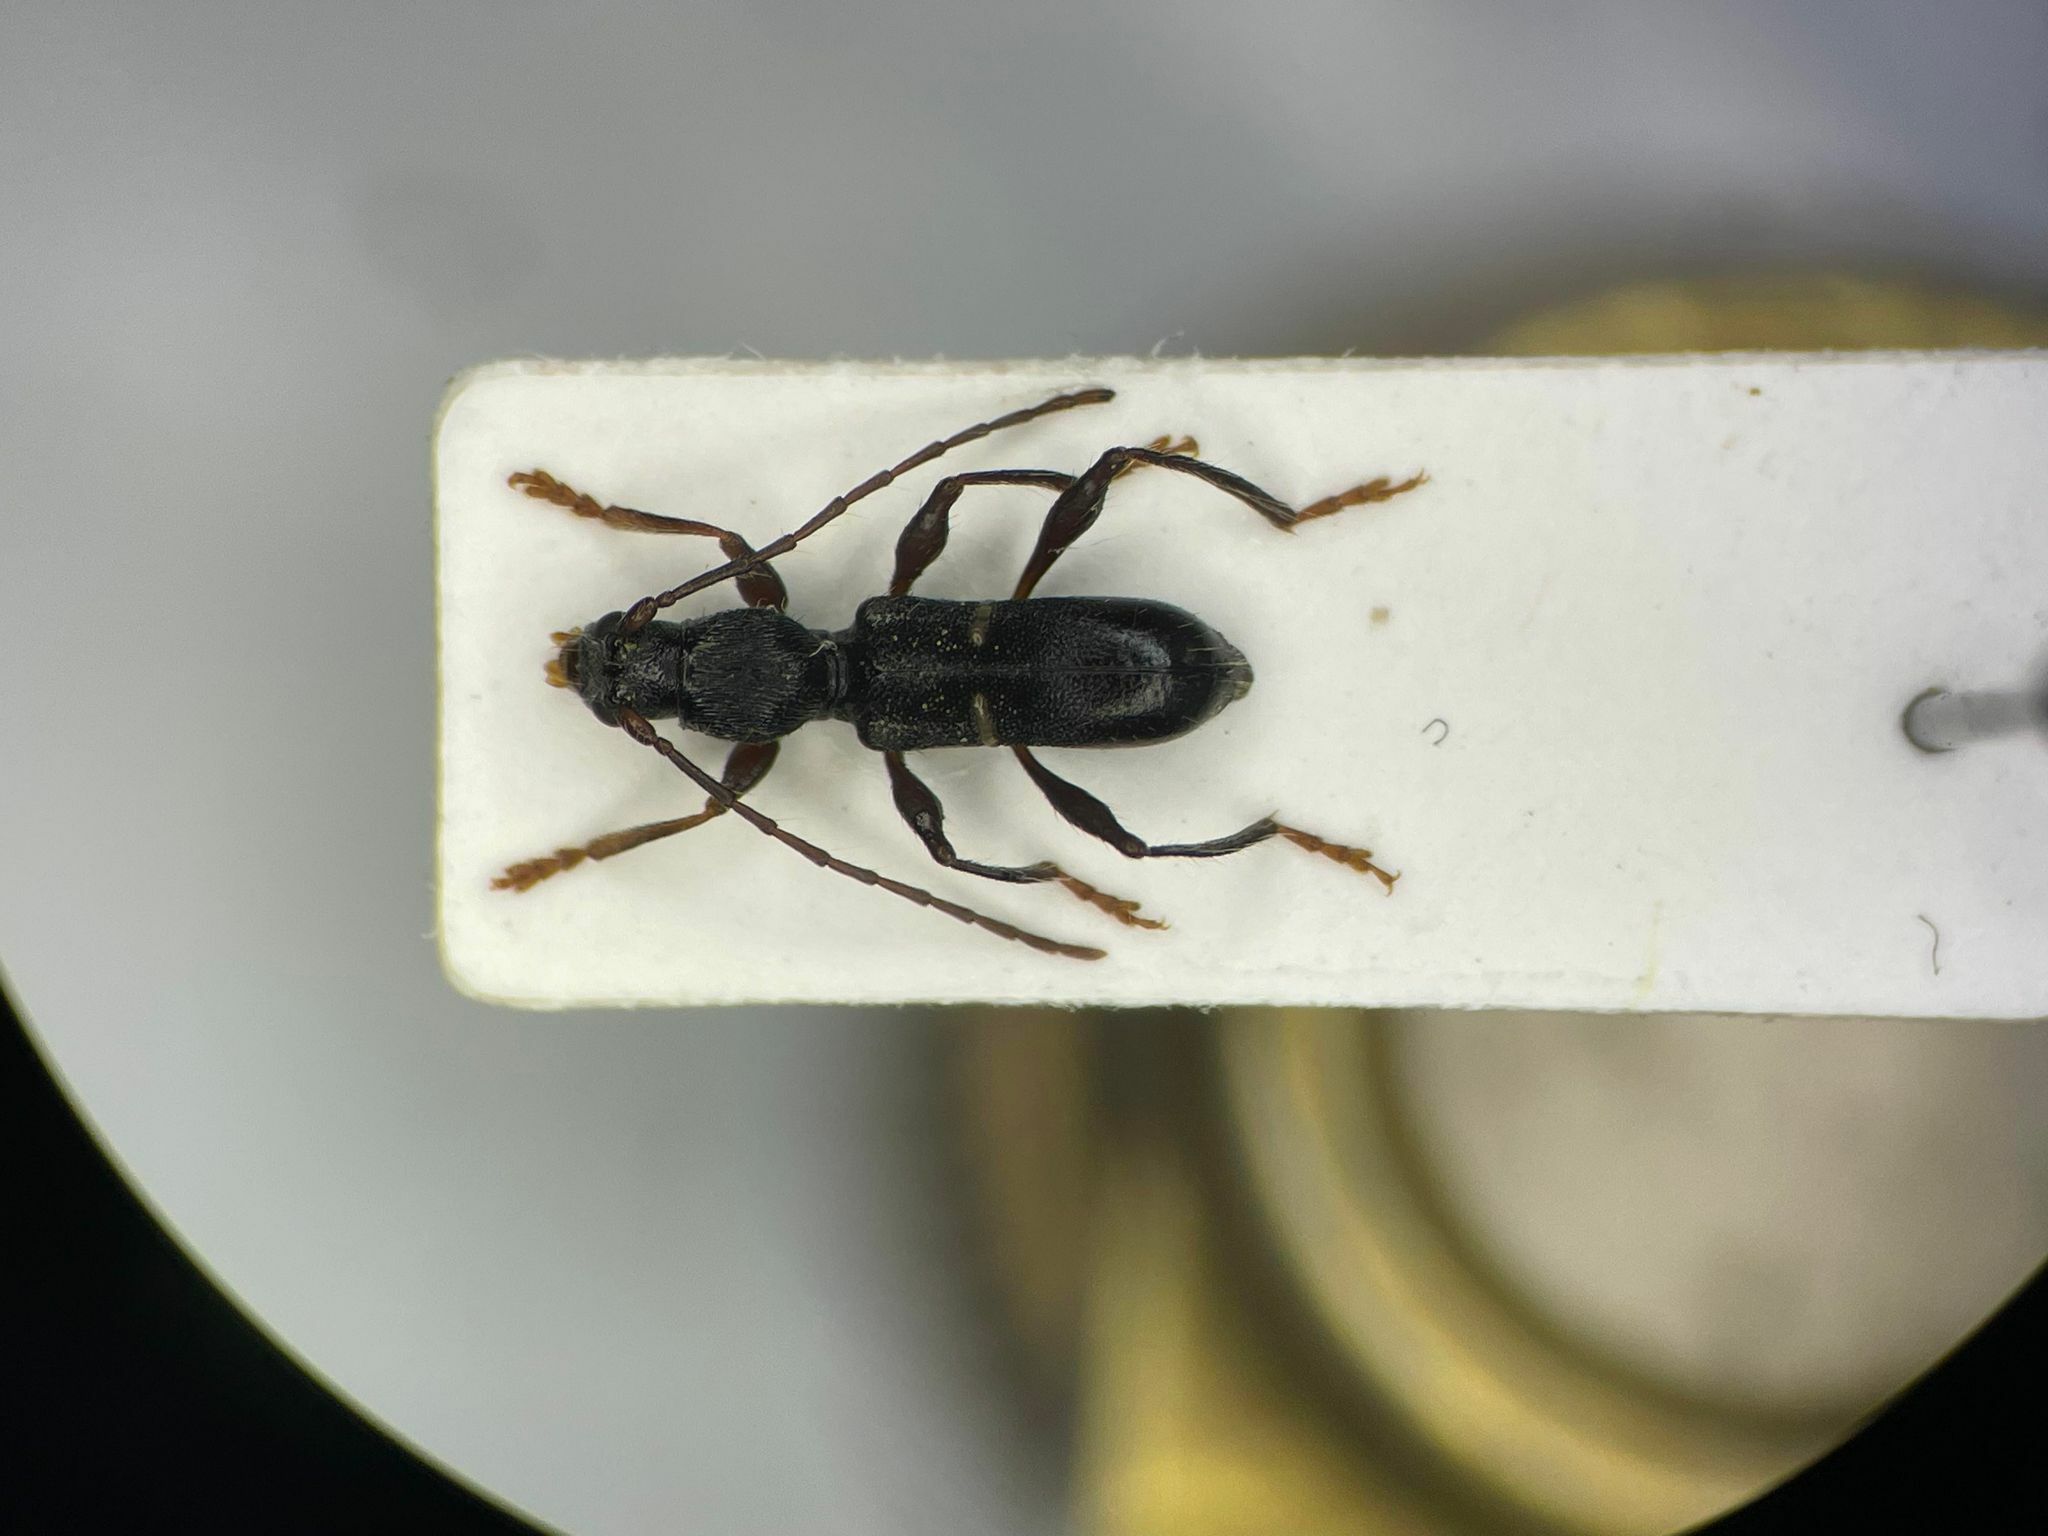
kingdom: Animalia
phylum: Arthropoda
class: Insecta
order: Coleoptera
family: Cerambycidae
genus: Euderces
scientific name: Euderces picipes
